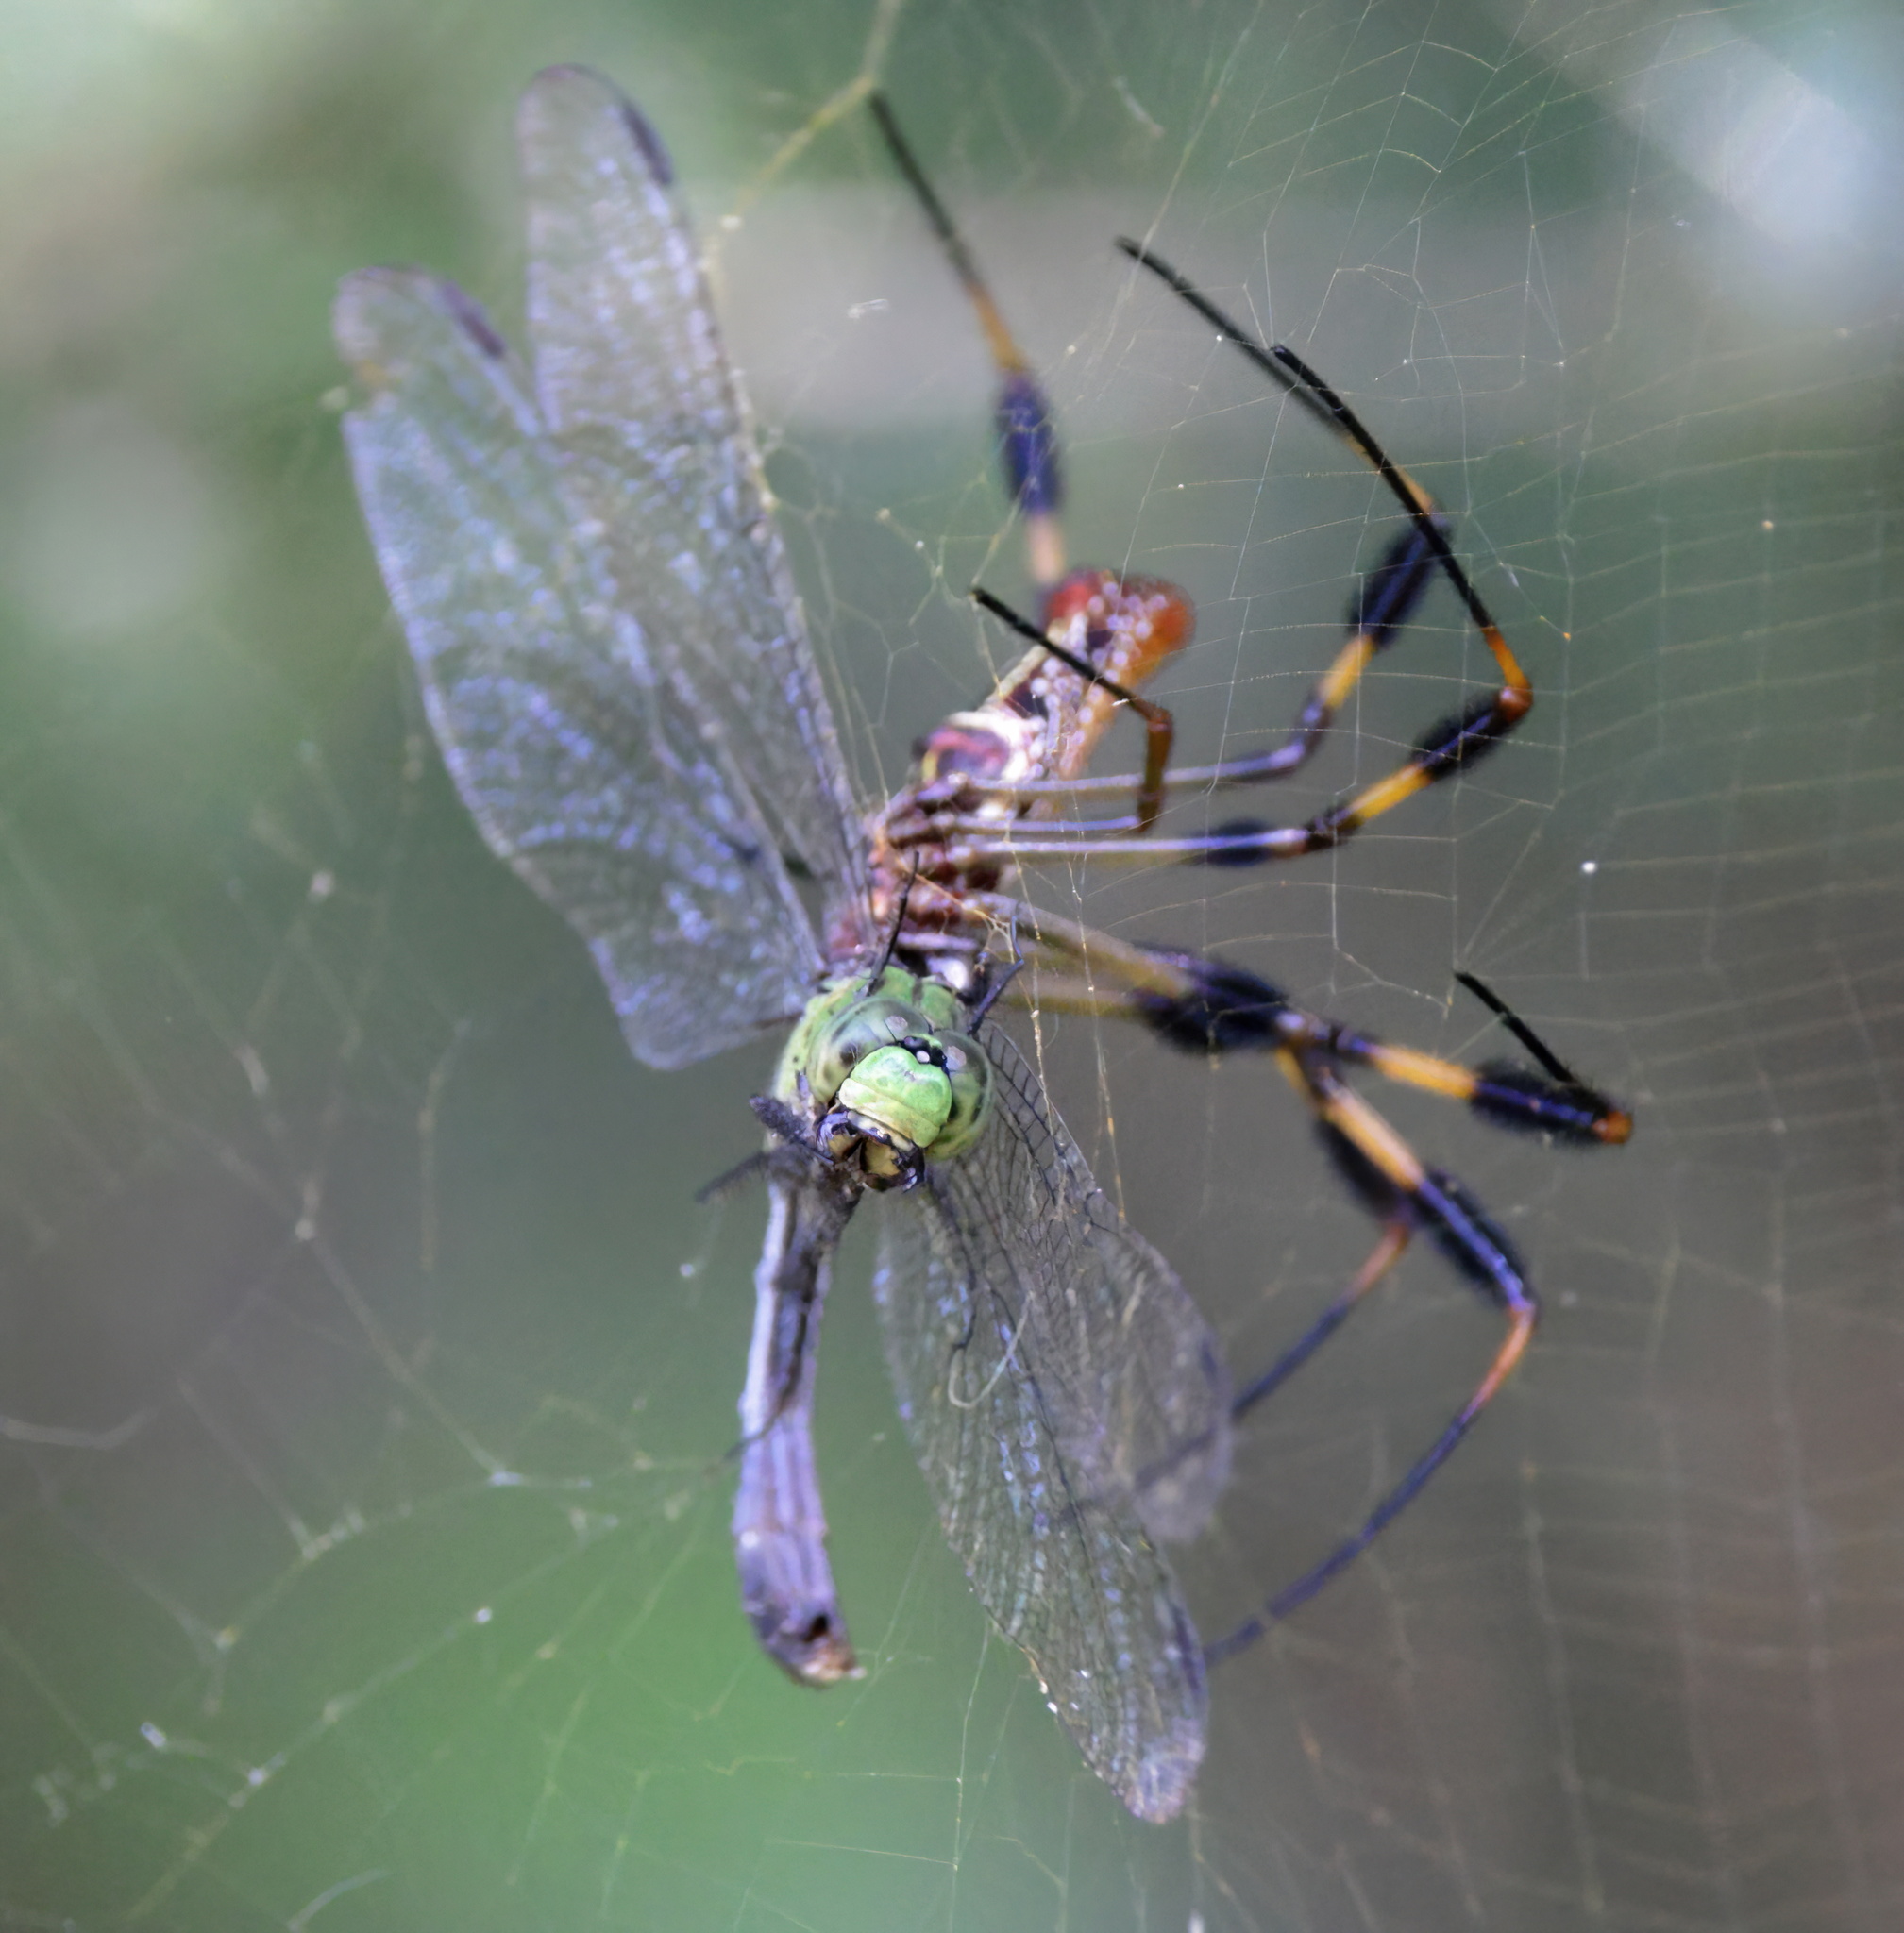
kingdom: Animalia
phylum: Arthropoda
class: Insecta
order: Odonata
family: Libellulidae
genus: Erythemis
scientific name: Erythemis simplicicollis
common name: Eastern pondhawk
